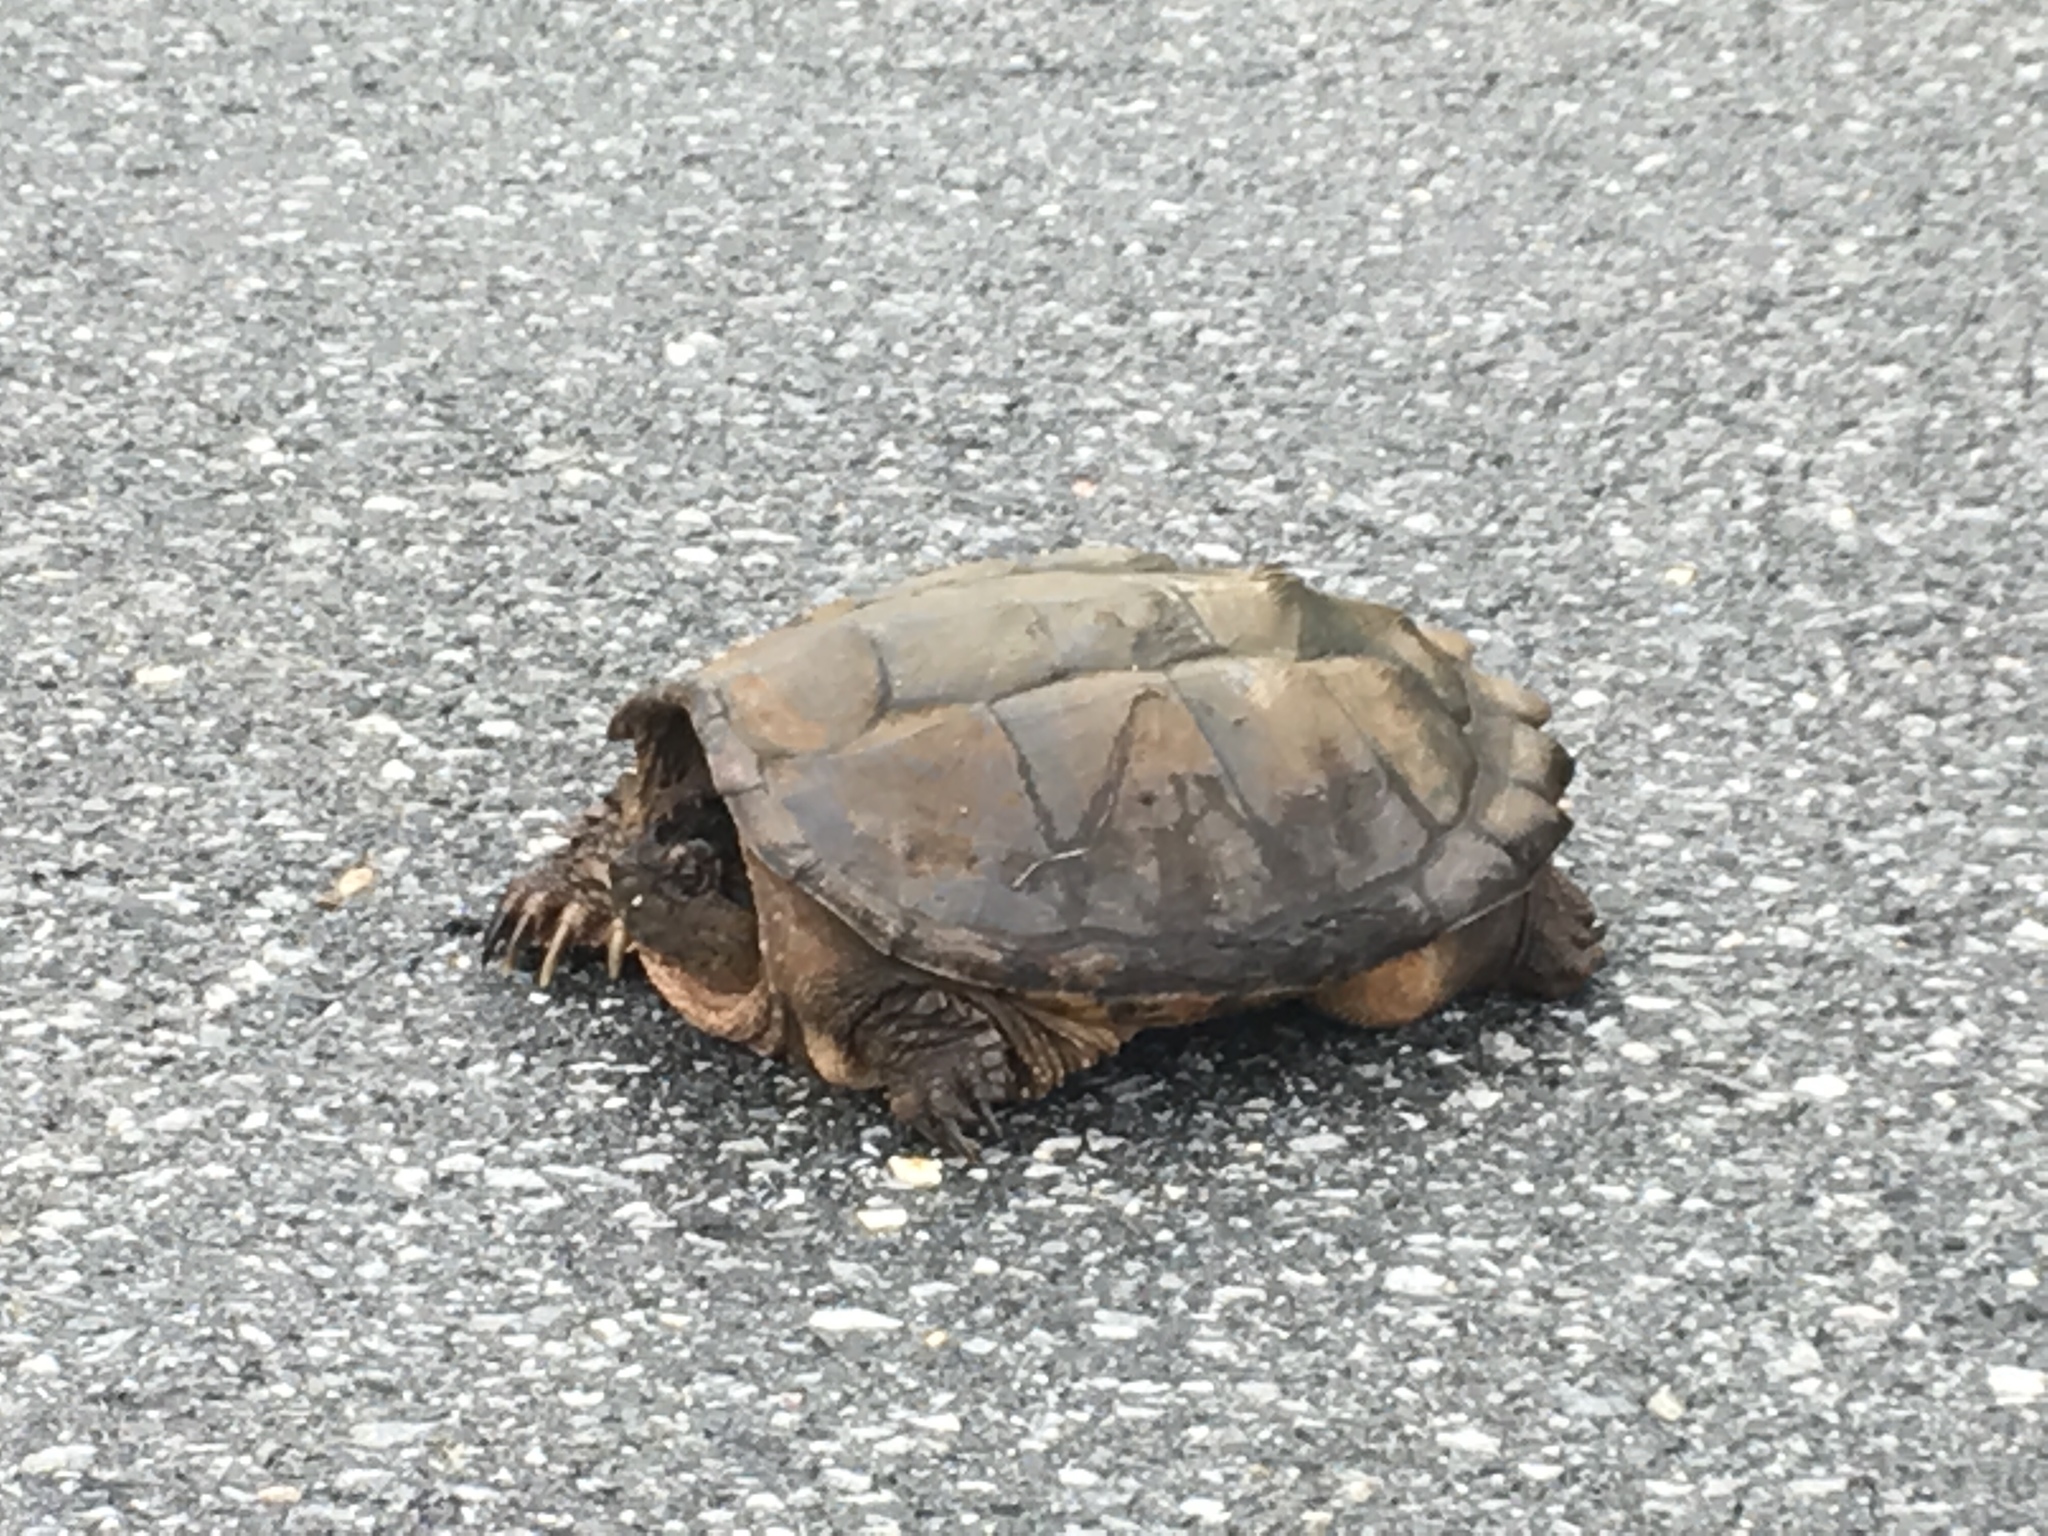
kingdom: Animalia
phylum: Chordata
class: Testudines
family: Chelydridae
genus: Chelydra
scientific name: Chelydra serpentina
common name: Common snapping turtle
